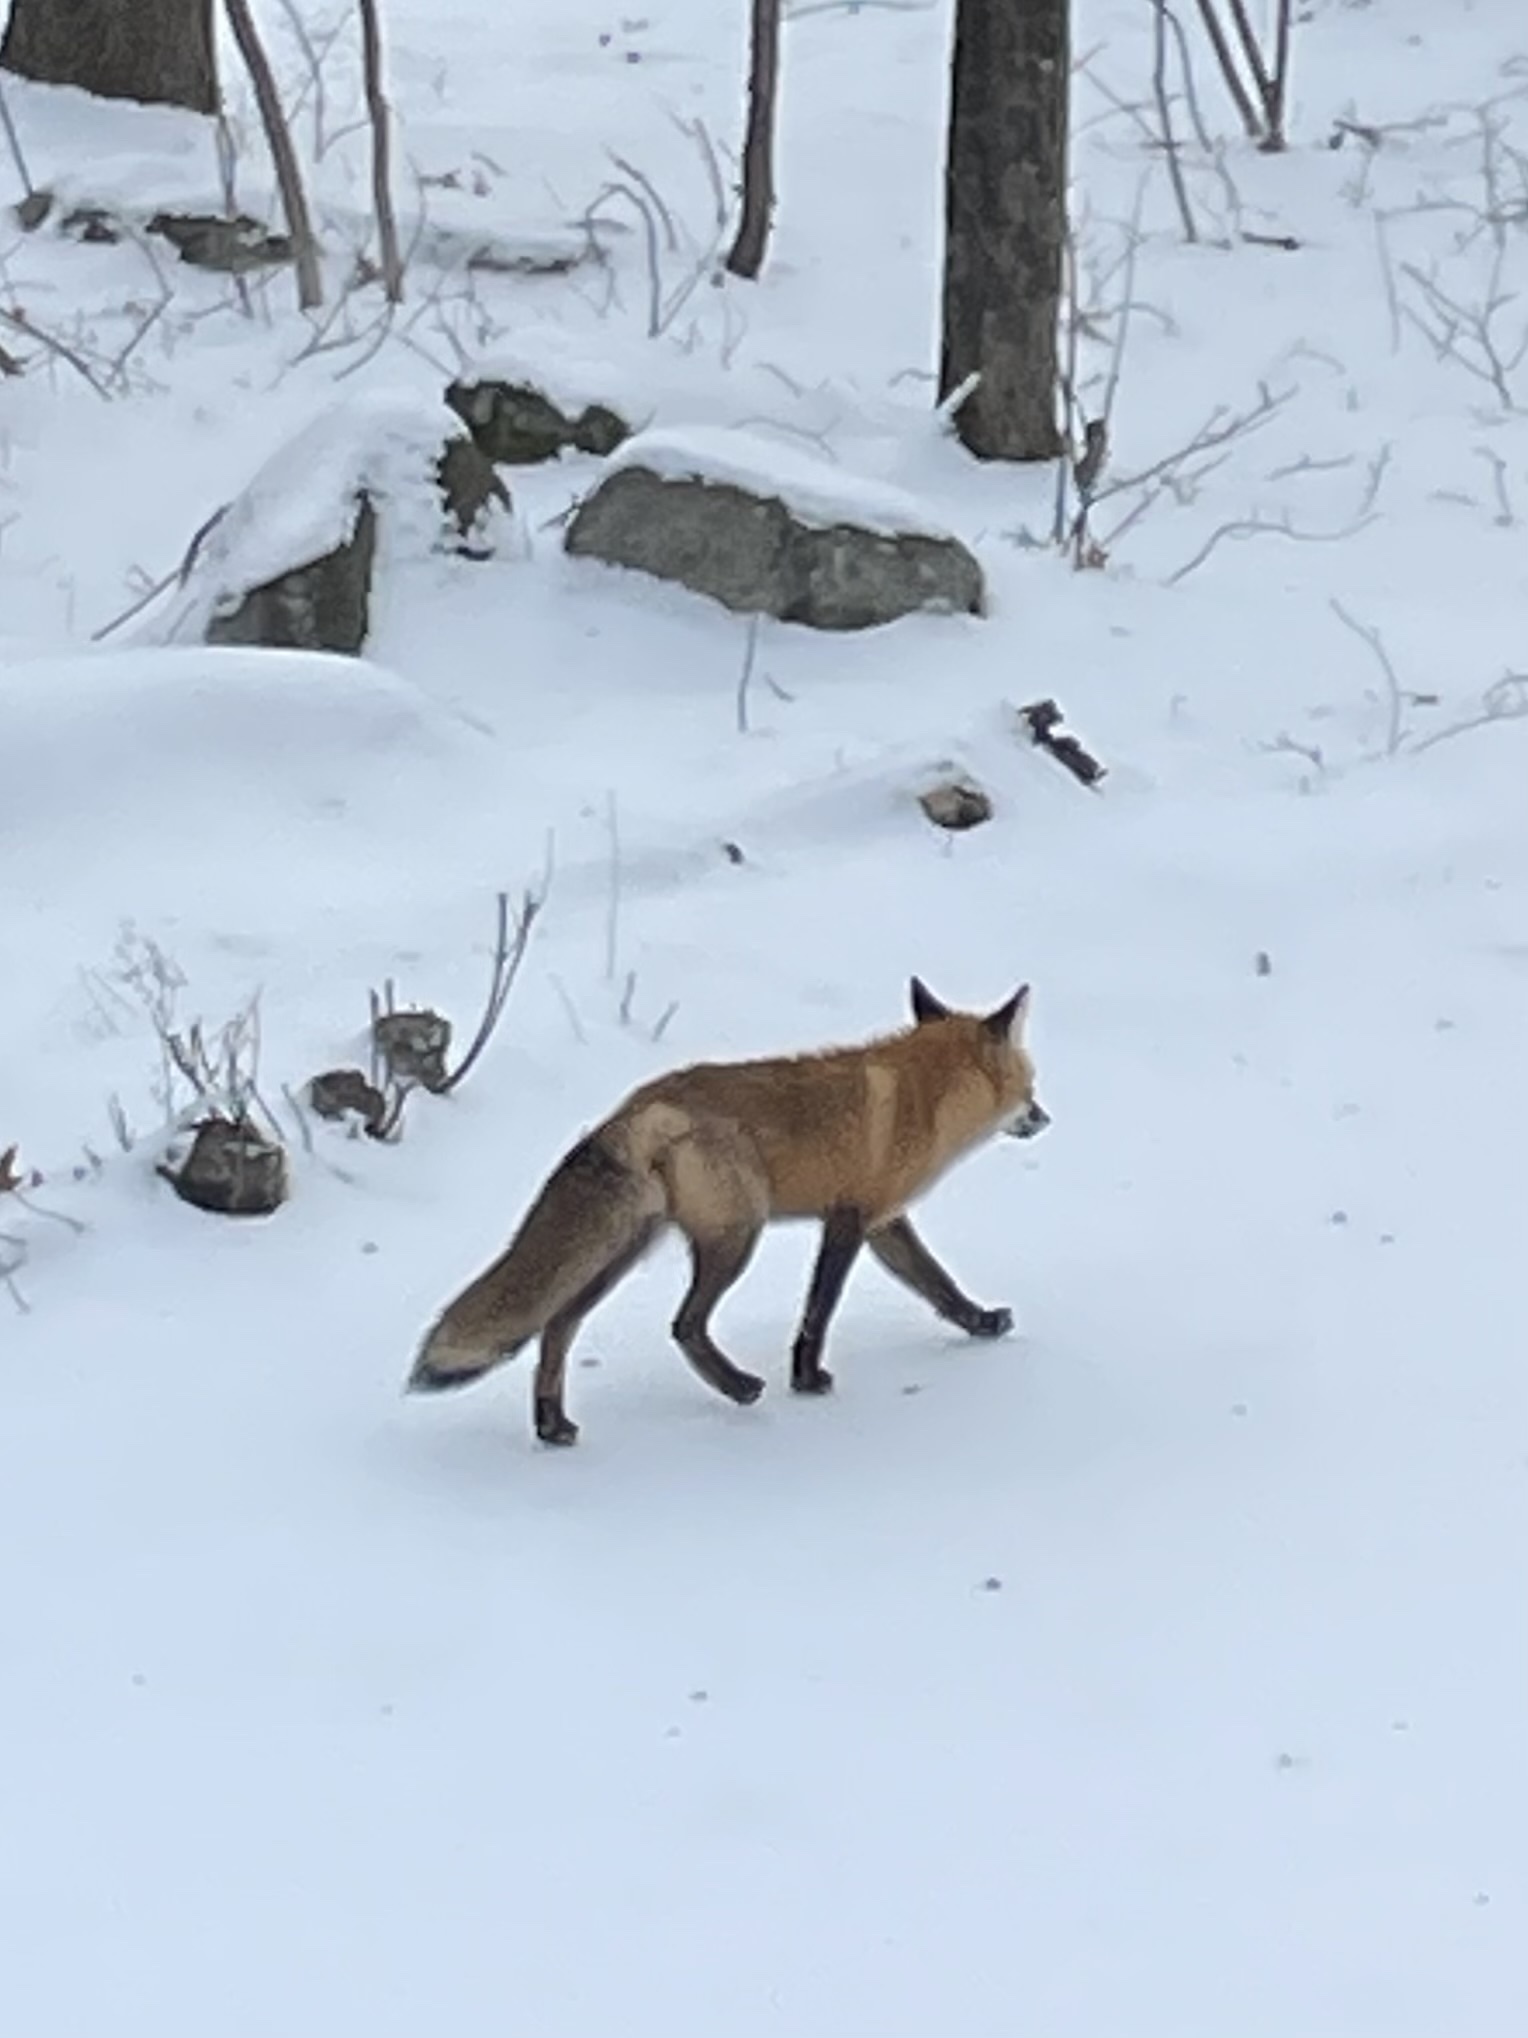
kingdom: Animalia
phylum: Chordata
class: Mammalia
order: Carnivora
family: Canidae
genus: Vulpes
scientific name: Vulpes vulpes
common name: Red fox
